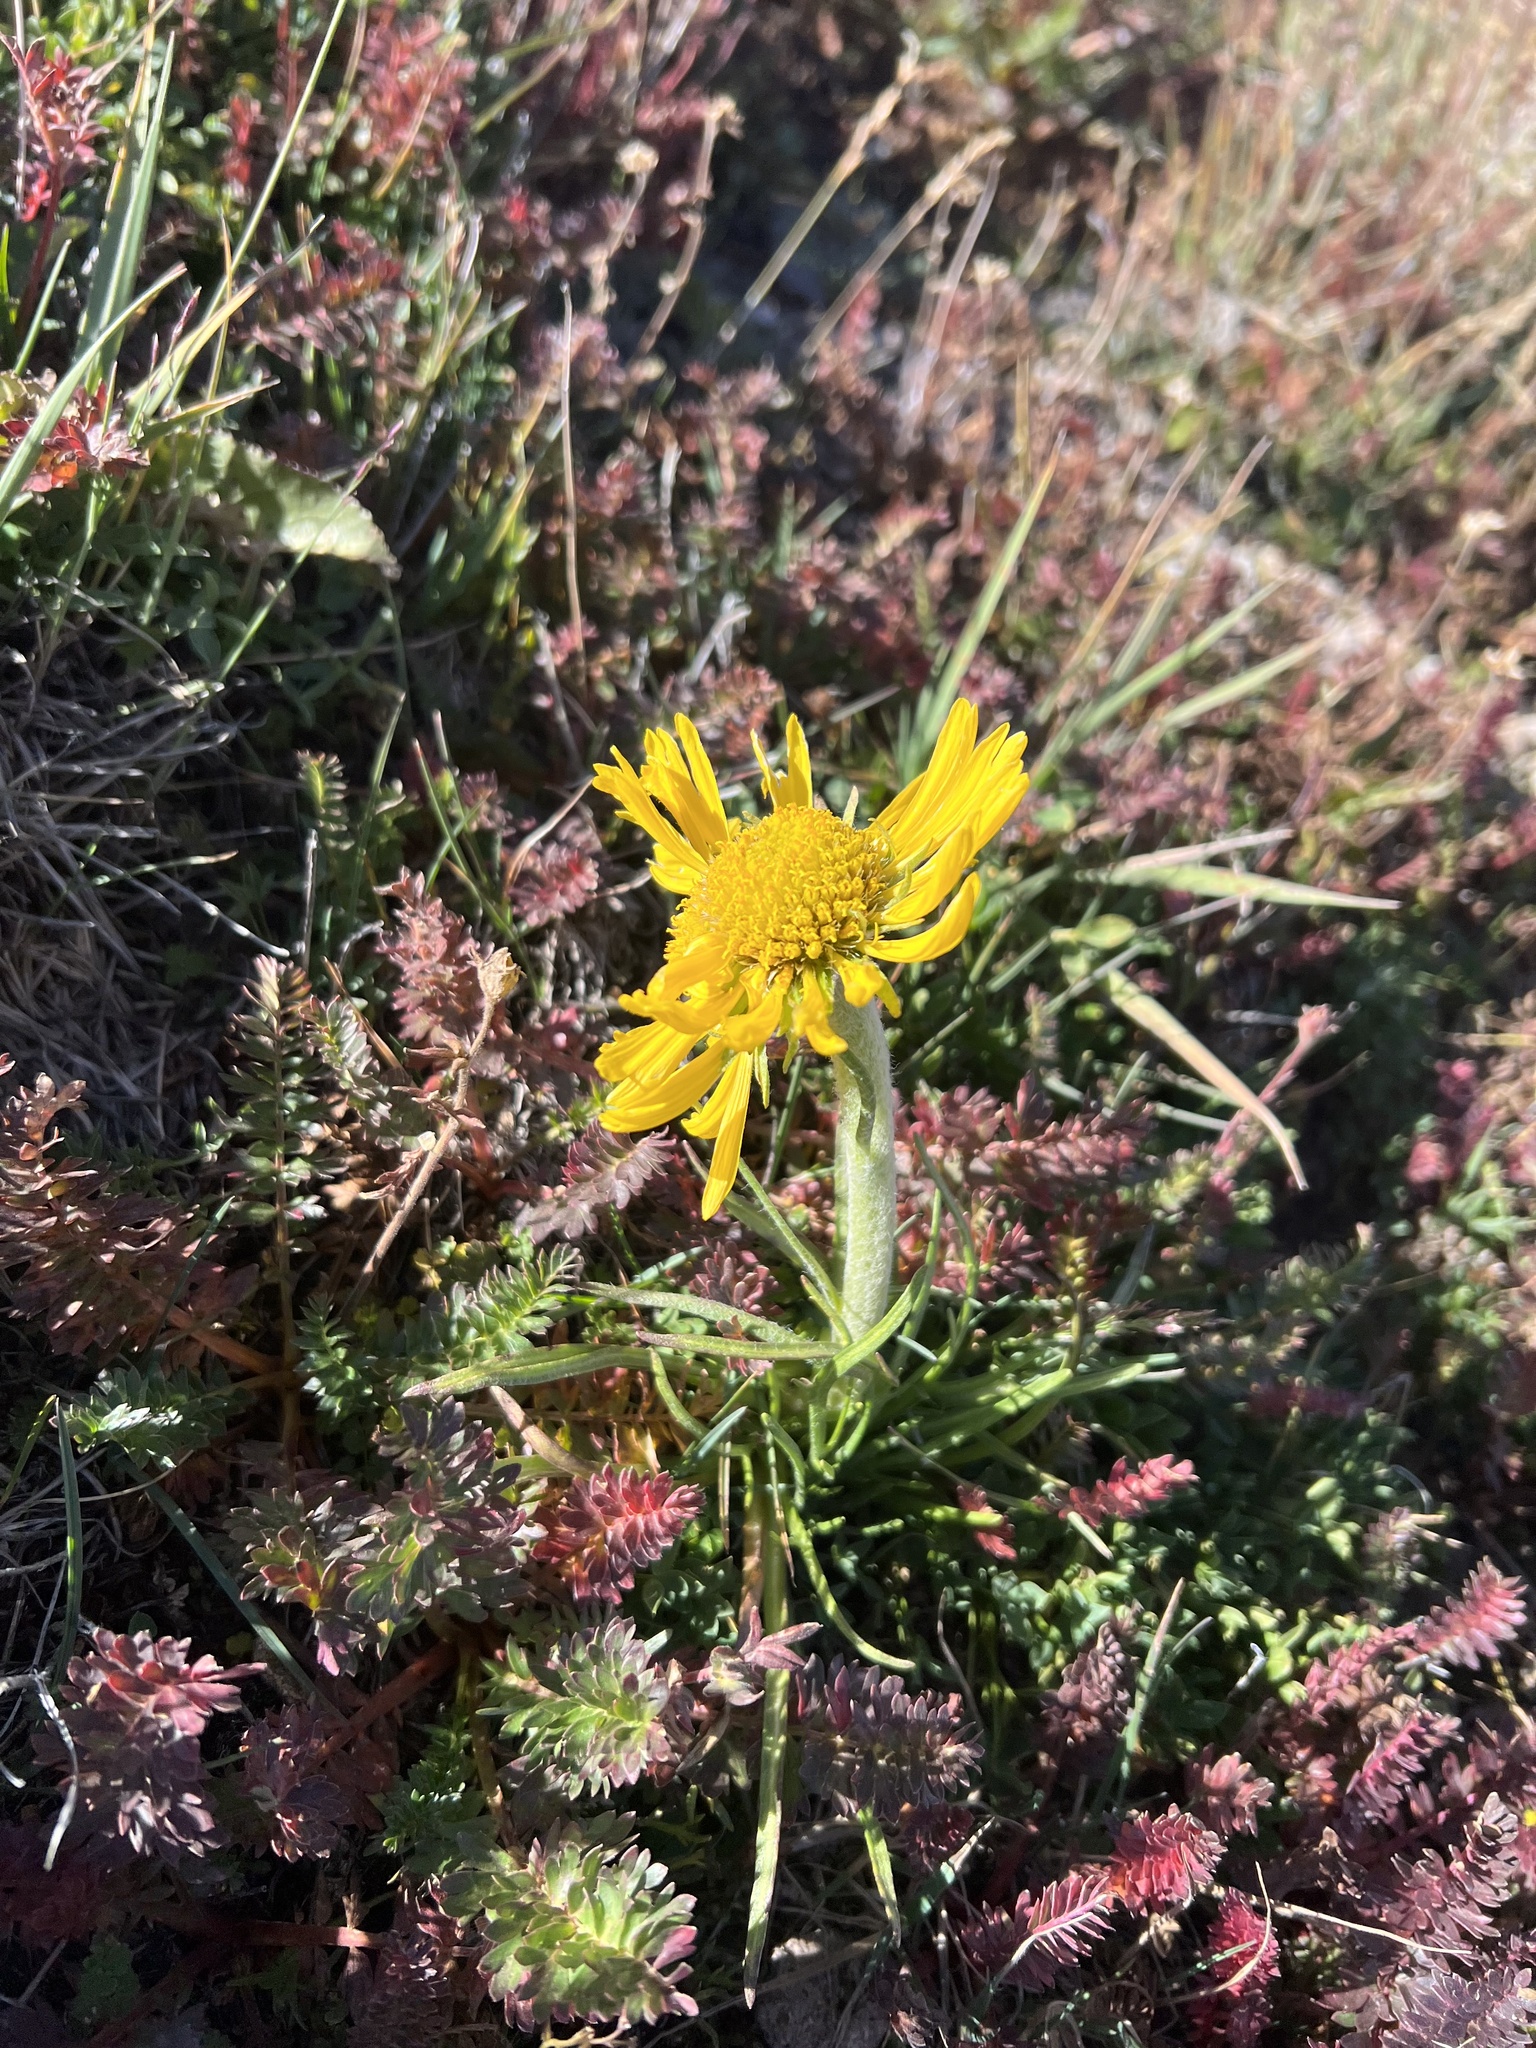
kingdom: Plantae
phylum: Tracheophyta
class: Magnoliopsida
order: Asterales
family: Asteraceae
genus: Hymenoxys
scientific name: Hymenoxys grandiflora
